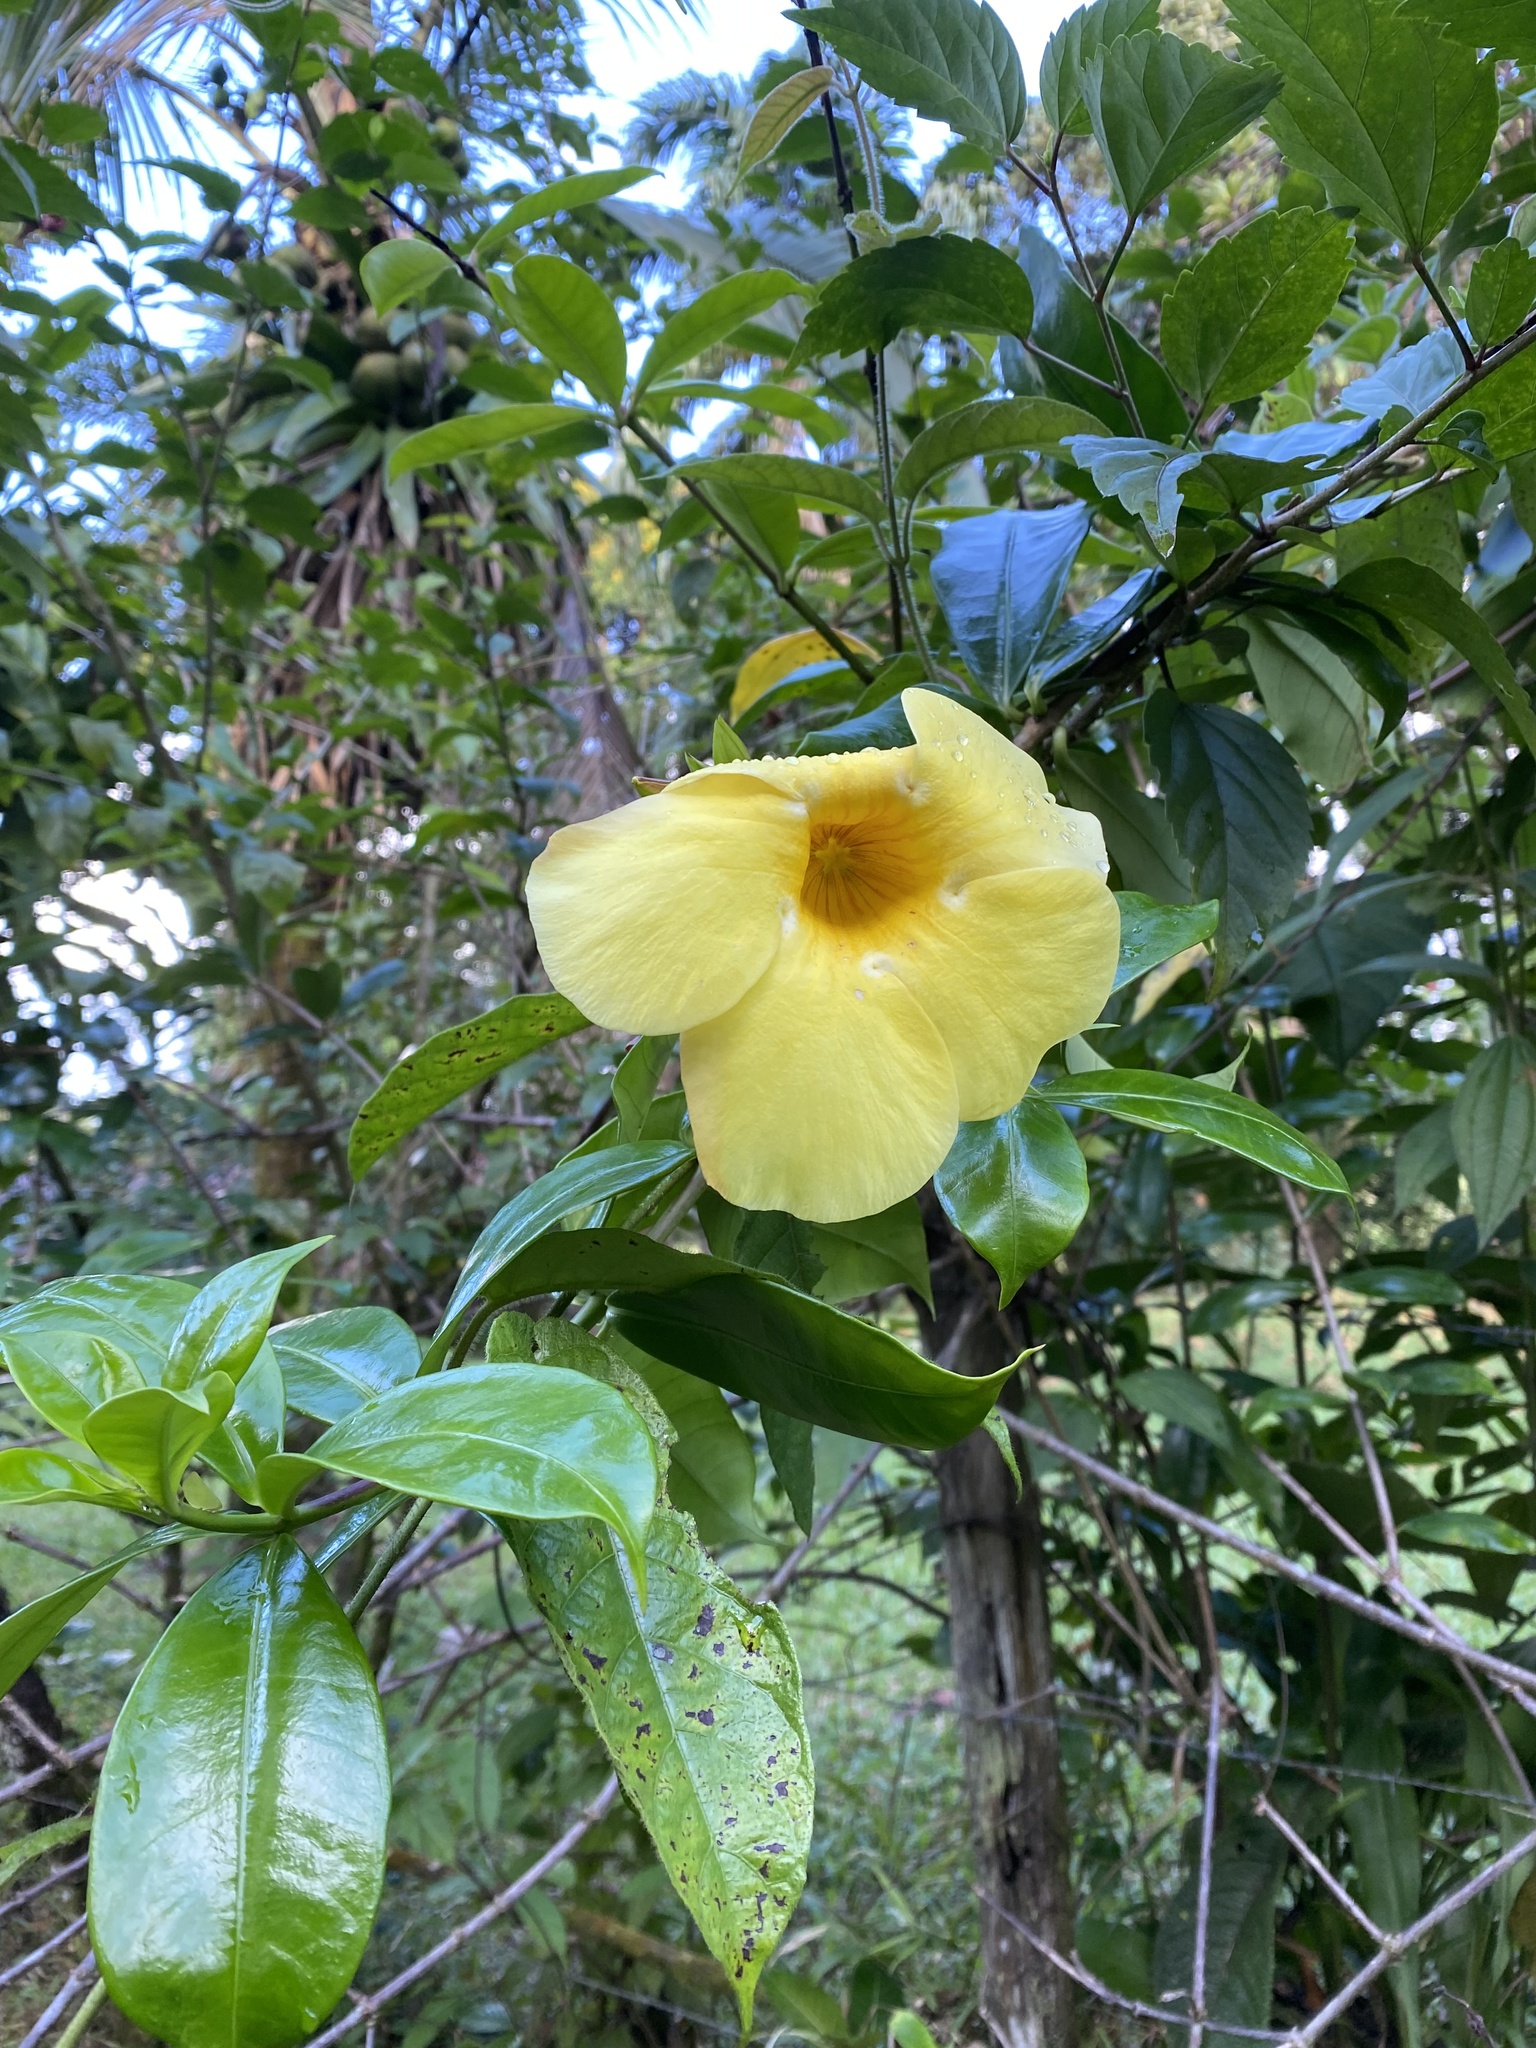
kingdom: Plantae
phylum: Tracheophyta
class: Magnoliopsida
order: Gentianales
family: Apocynaceae
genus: Allamanda
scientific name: Allamanda cathartica
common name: Golden trumpet
